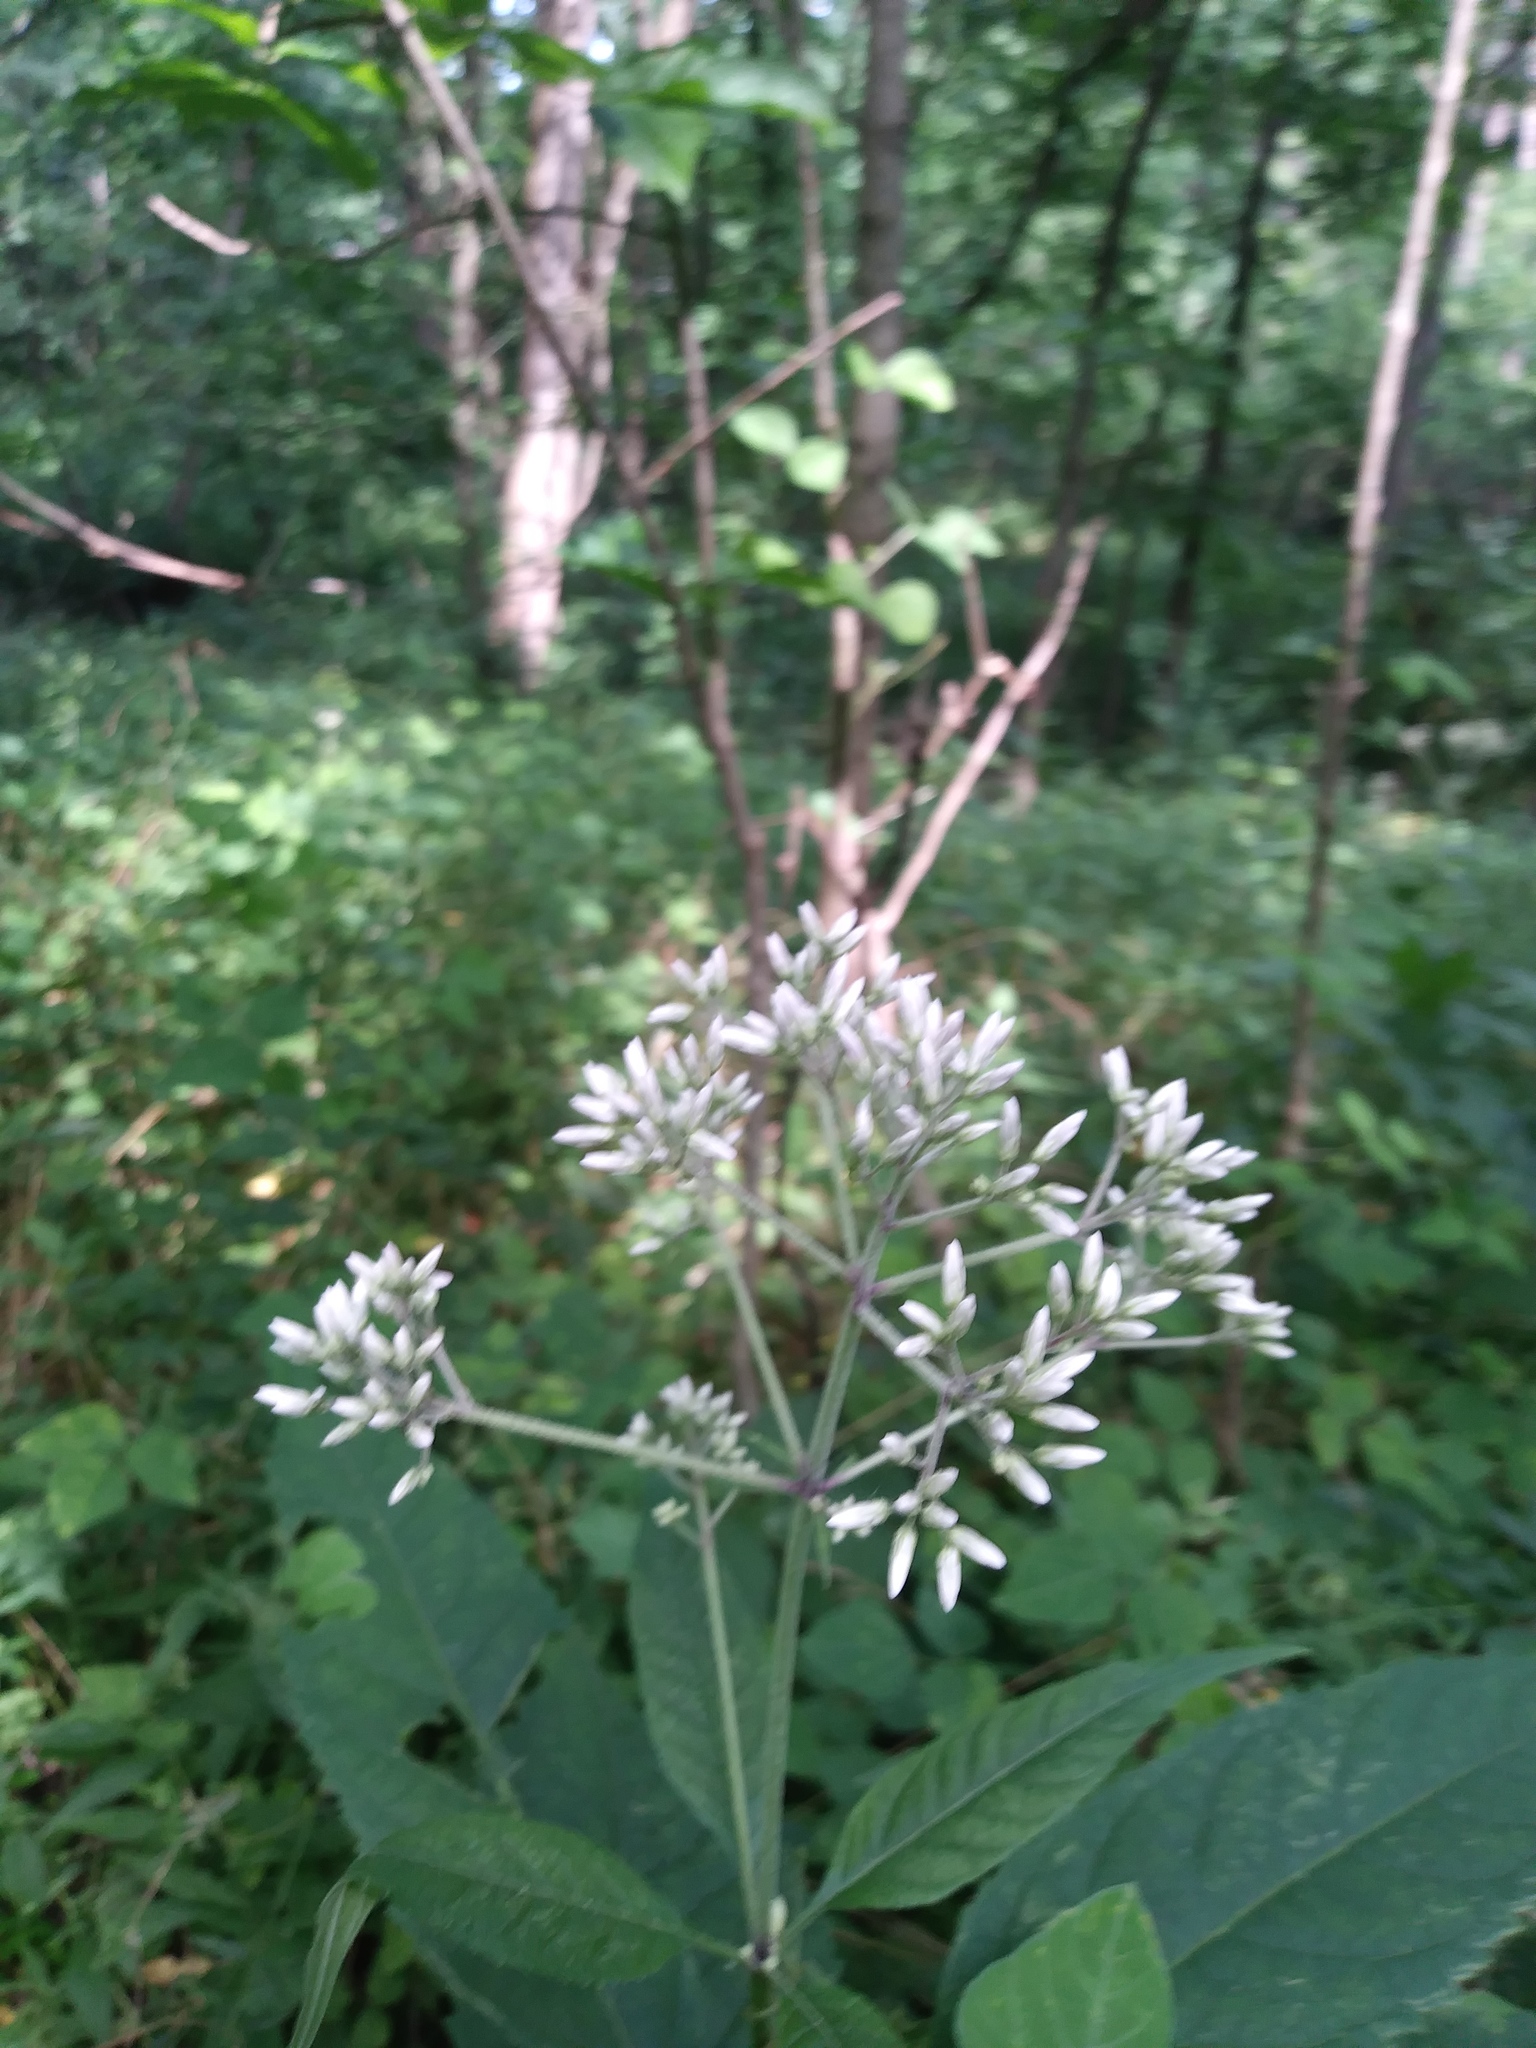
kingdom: Plantae
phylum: Tracheophyta
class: Magnoliopsida
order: Asterales
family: Asteraceae
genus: Eutrochium
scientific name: Eutrochium purpureum
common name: Gravelroot
